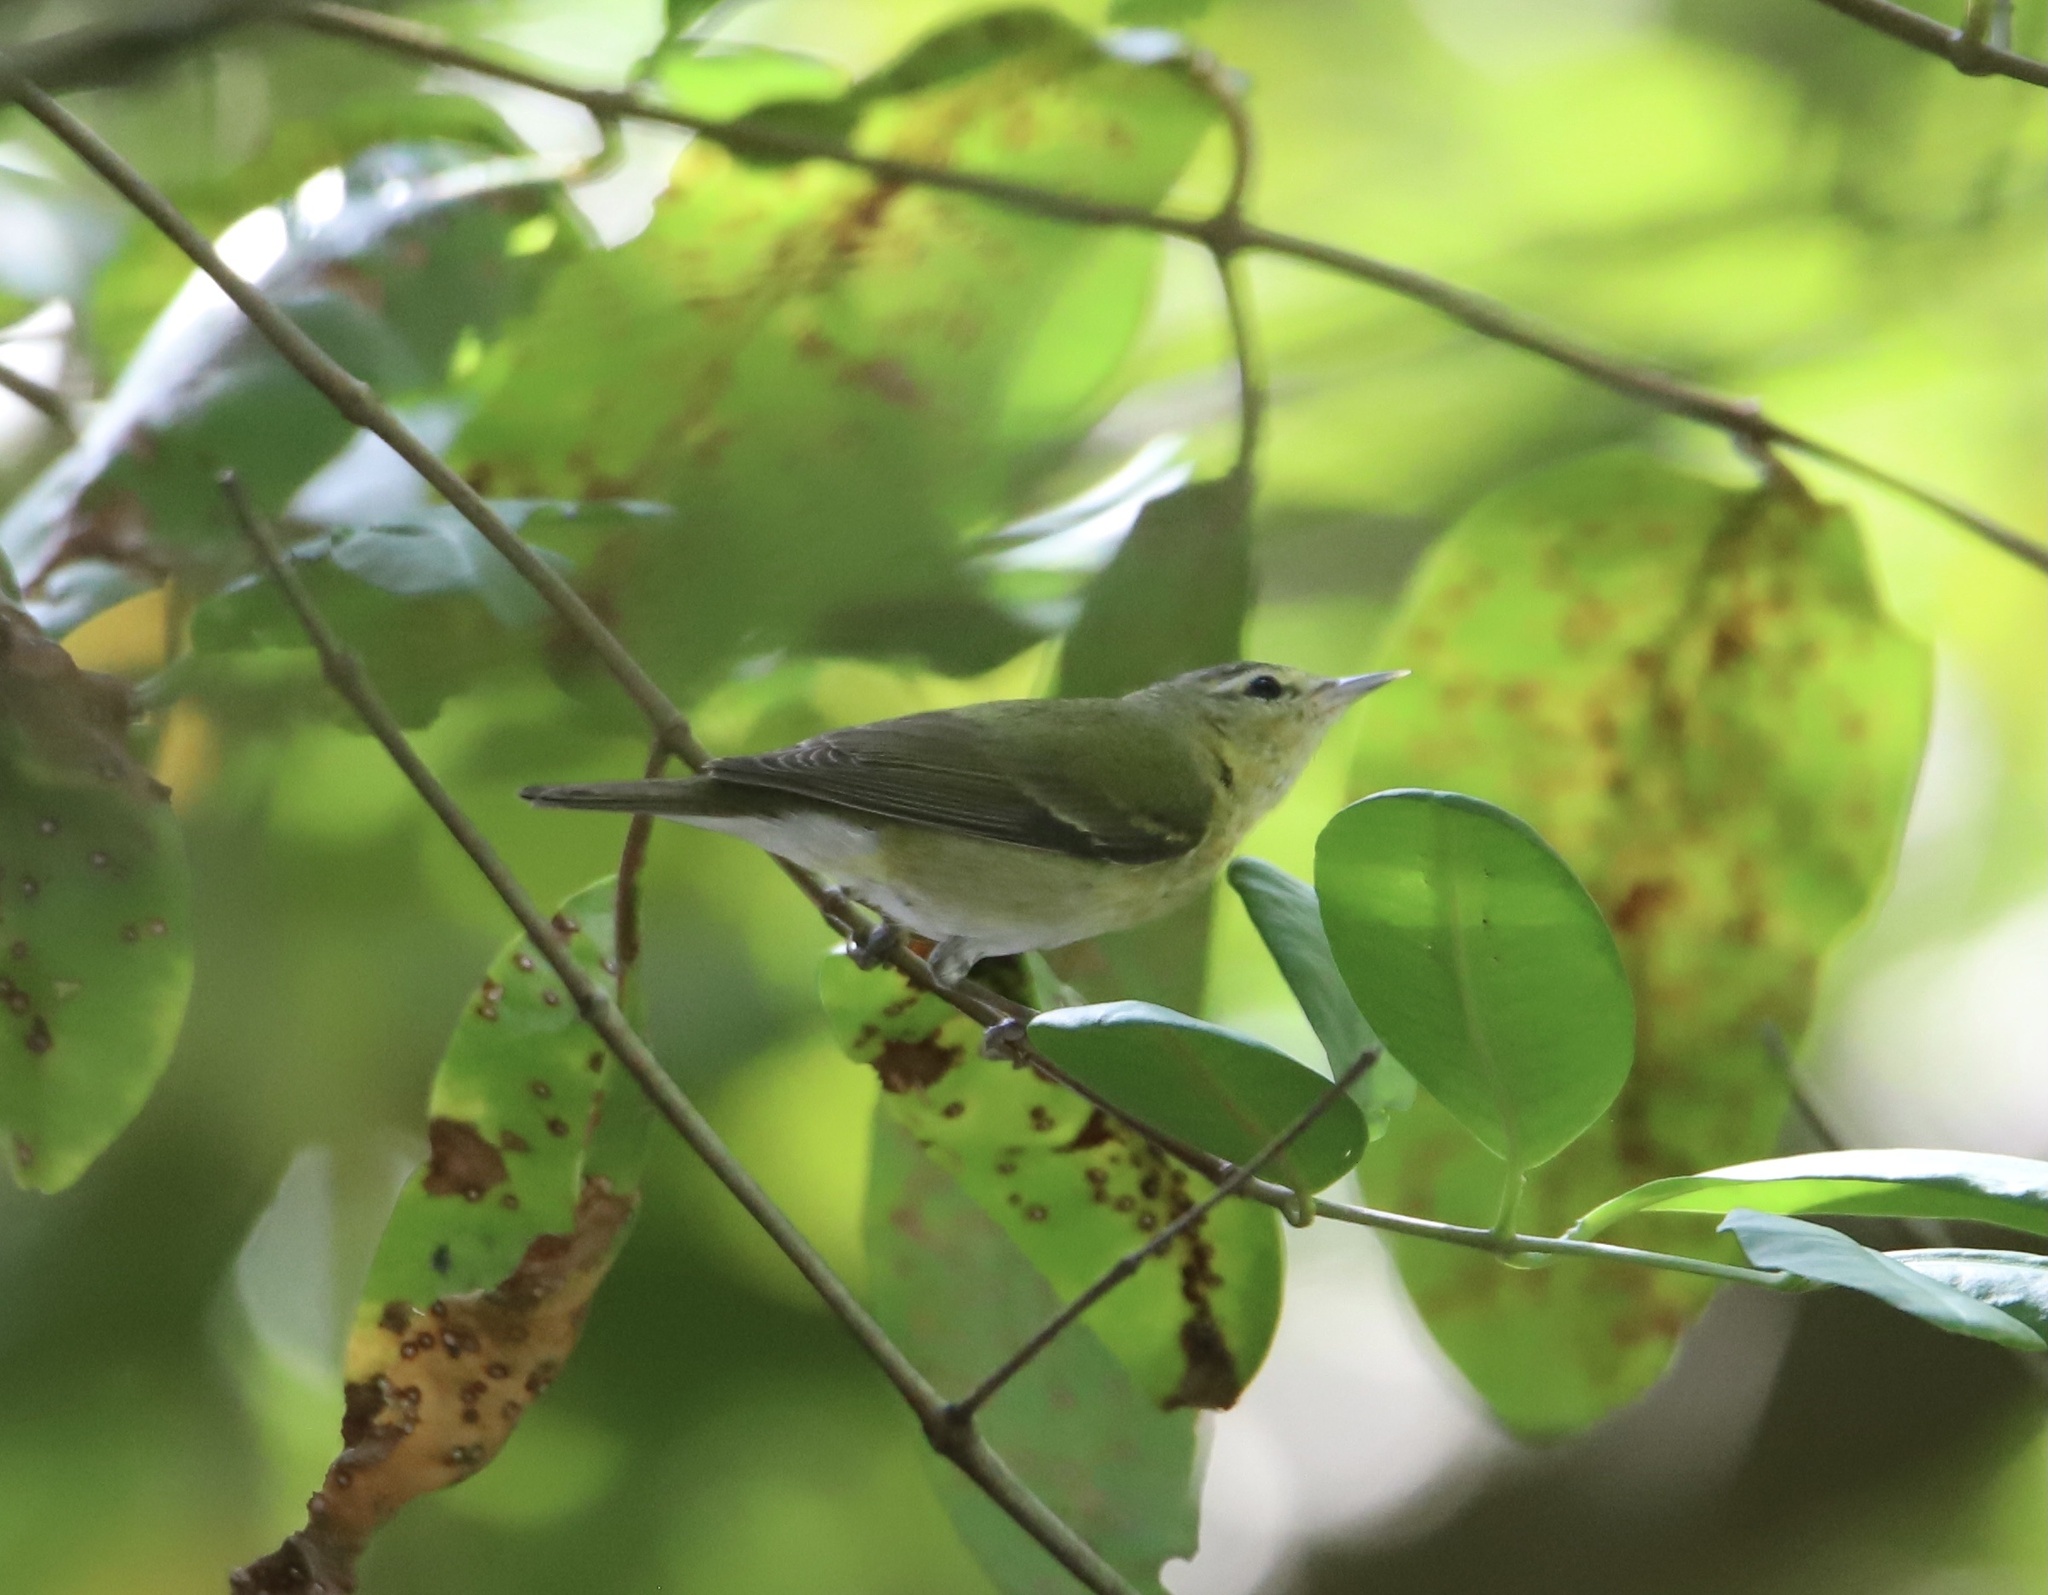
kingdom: Animalia
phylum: Chordata
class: Aves
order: Passeriformes
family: Parulidae
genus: Leiothlypis
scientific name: Leiothlypis peregrina
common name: Tennessee warbler
